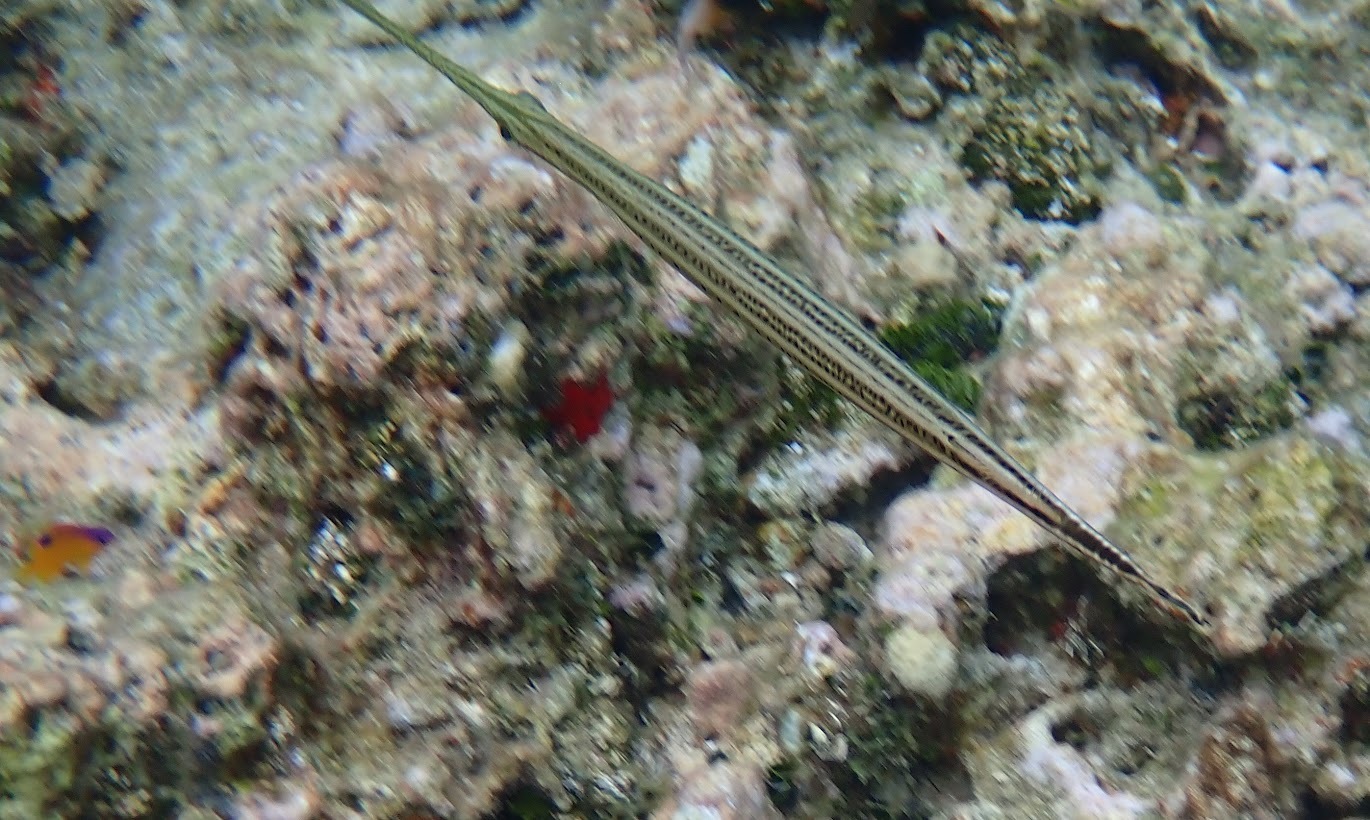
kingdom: Animalia
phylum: Chordata
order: Syngnathiformes
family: Aulostomidae
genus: Aulostomus
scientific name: Aulostomus maculatus
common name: West atlantic trumpetfish
